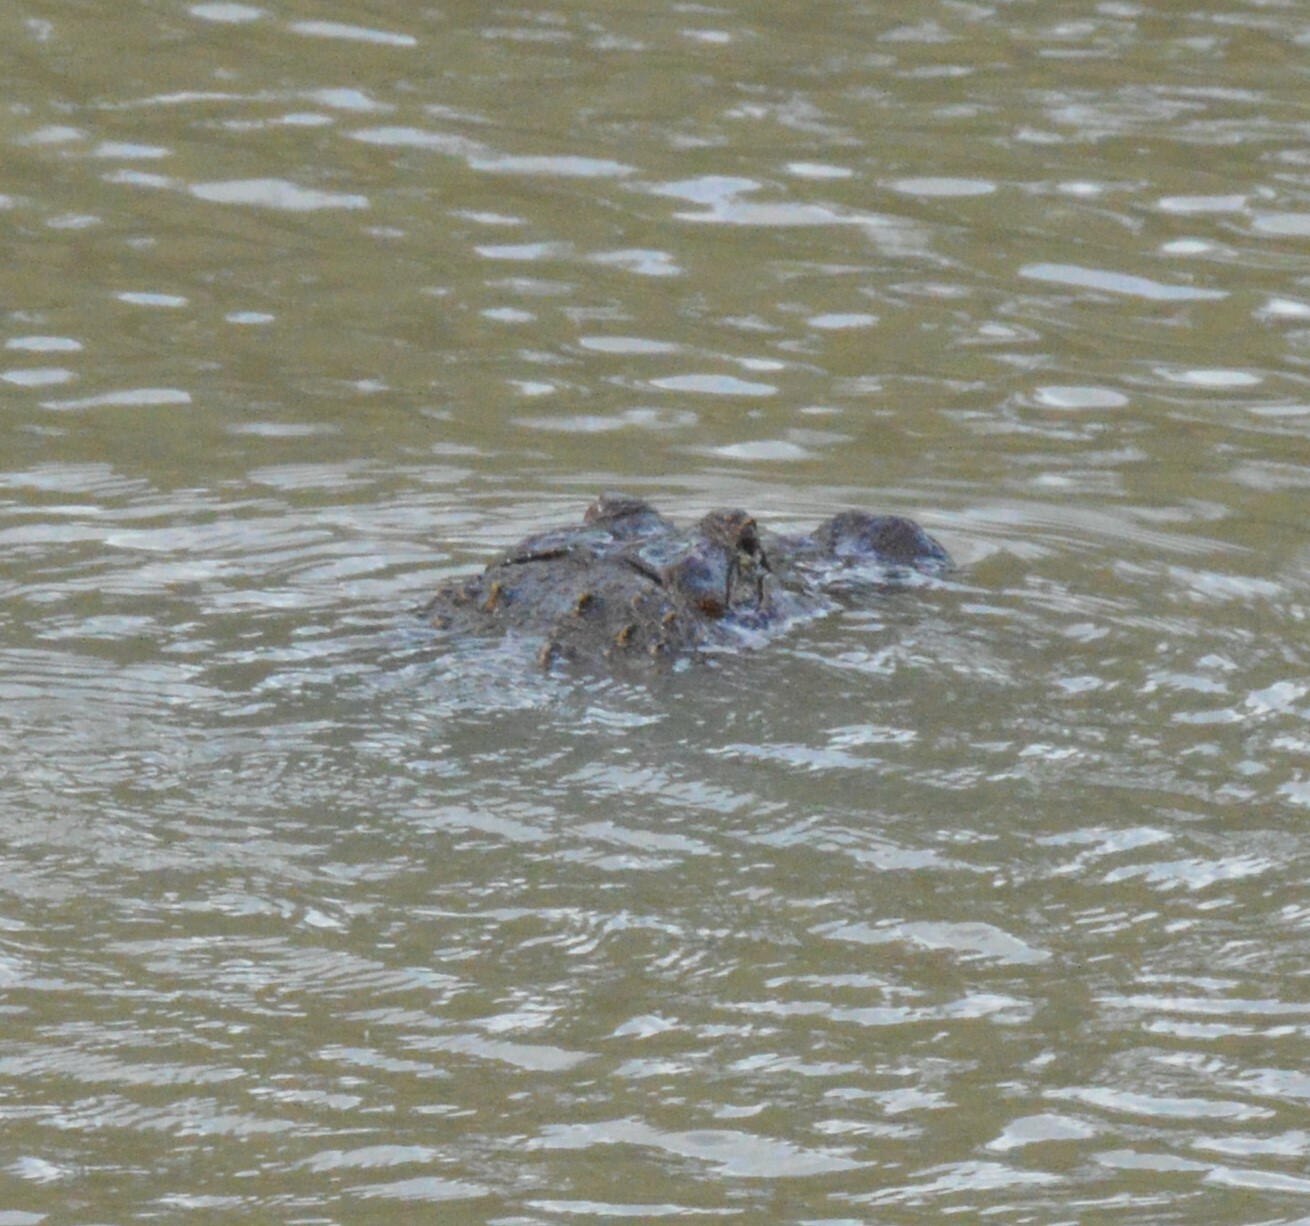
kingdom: Animalia
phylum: Chordata
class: Crocodylia
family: Alligatoridae
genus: Alligator
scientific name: Alligator mississippiensis
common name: American alligator
